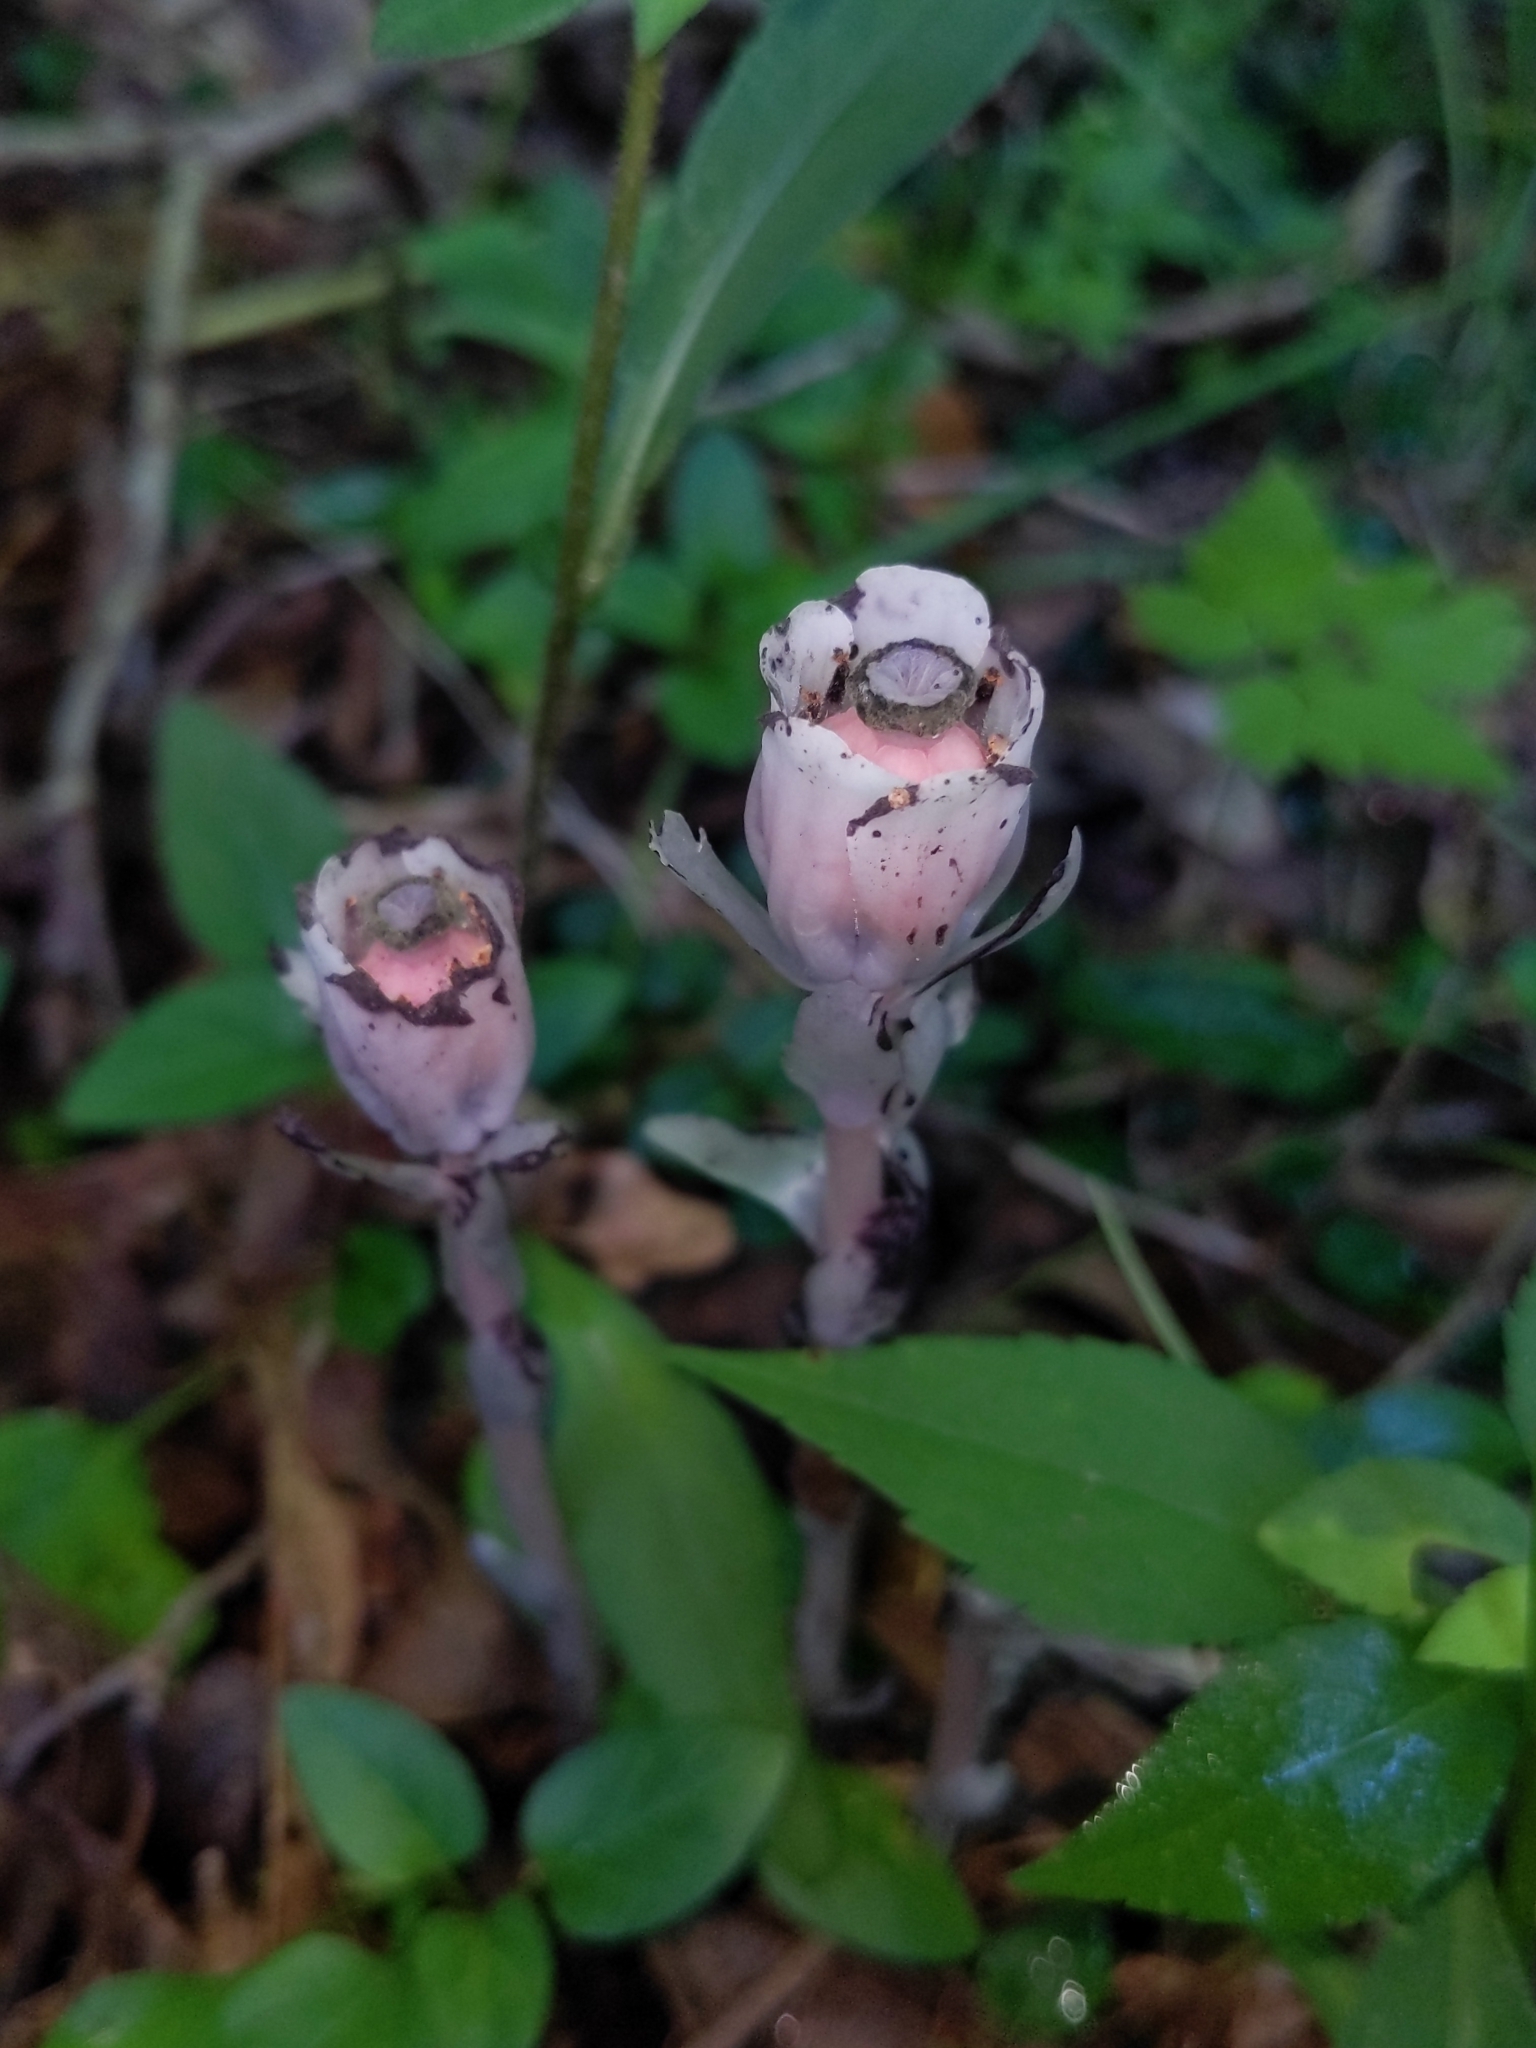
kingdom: Plantae
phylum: Tracheophyta
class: Magnoliopsida
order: Ericales
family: Ericaceae
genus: Monotropa
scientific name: Monotropa uniflora
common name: Convulsion root
